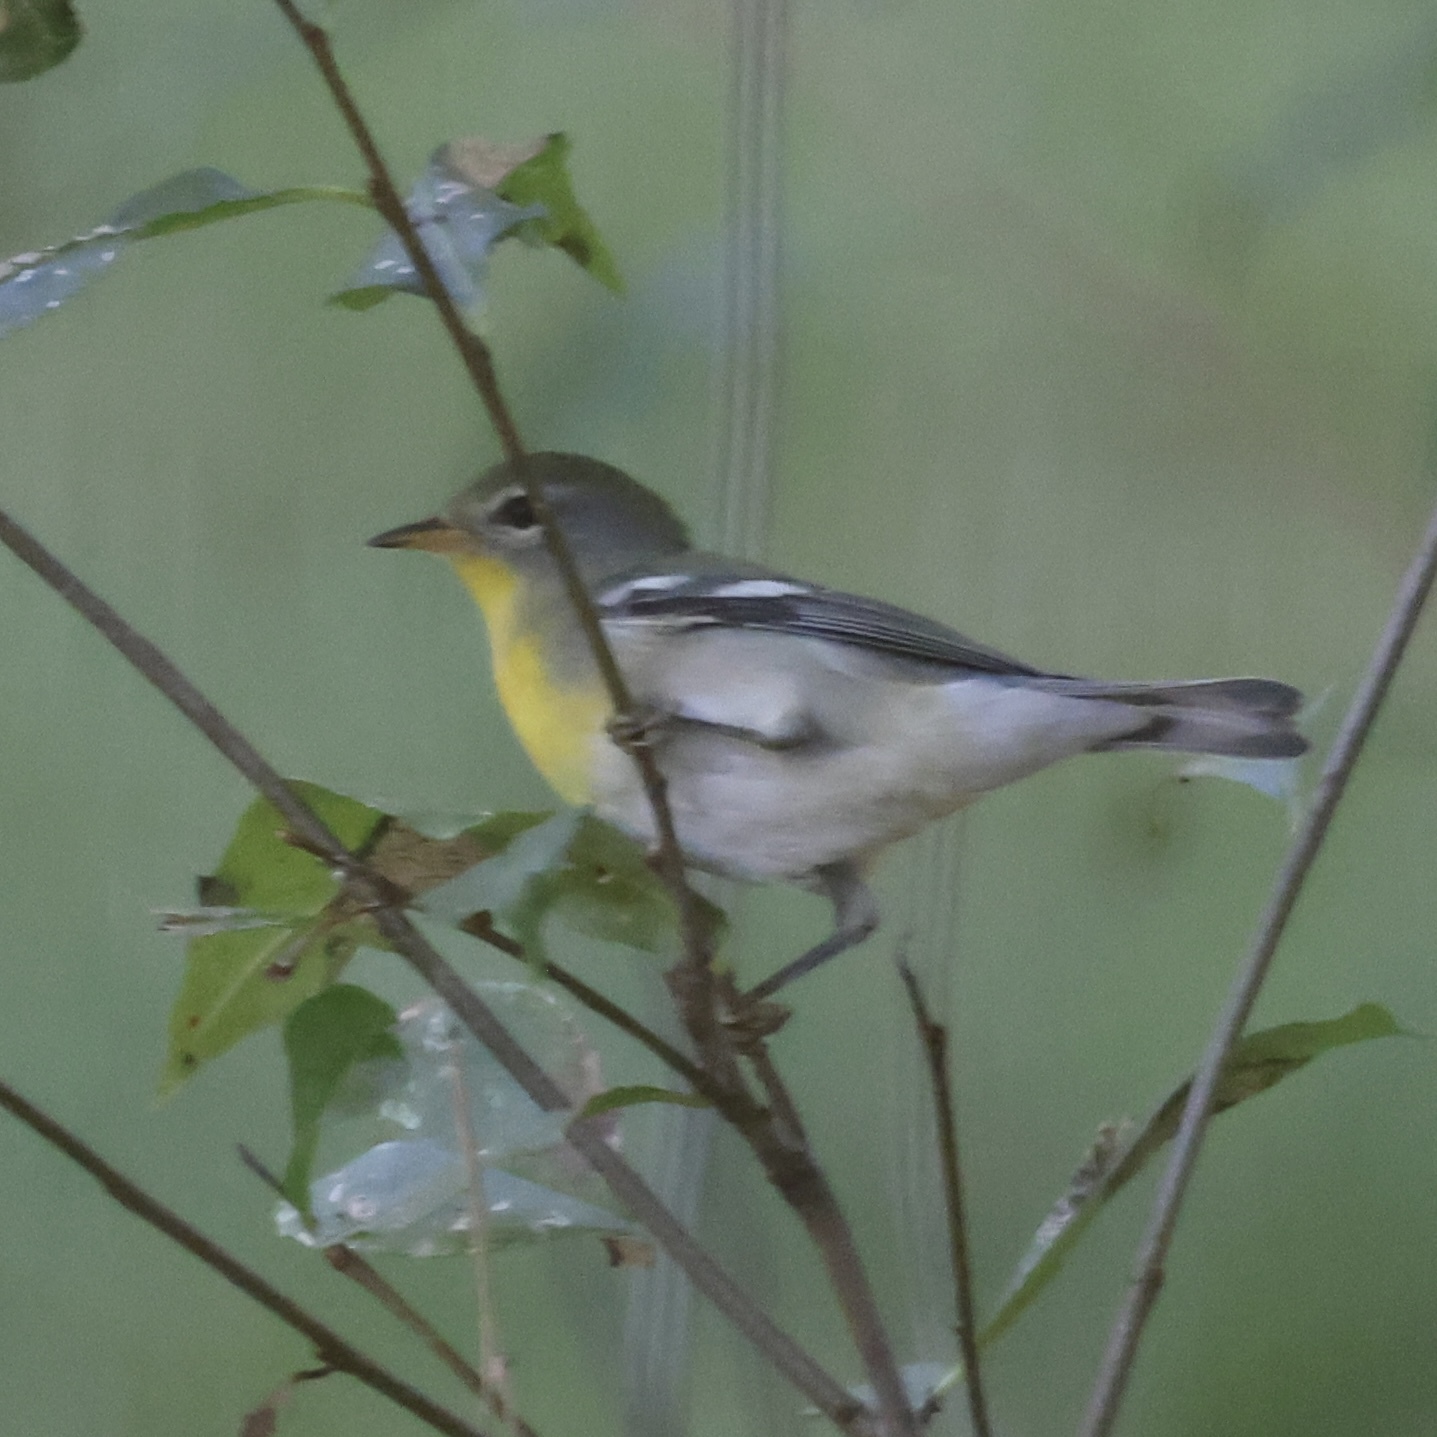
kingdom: Animalia
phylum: Chordata
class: Aves
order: Passeriformes
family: Parulidae
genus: Setophaga
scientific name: Setophaga americana
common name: Northern parula
